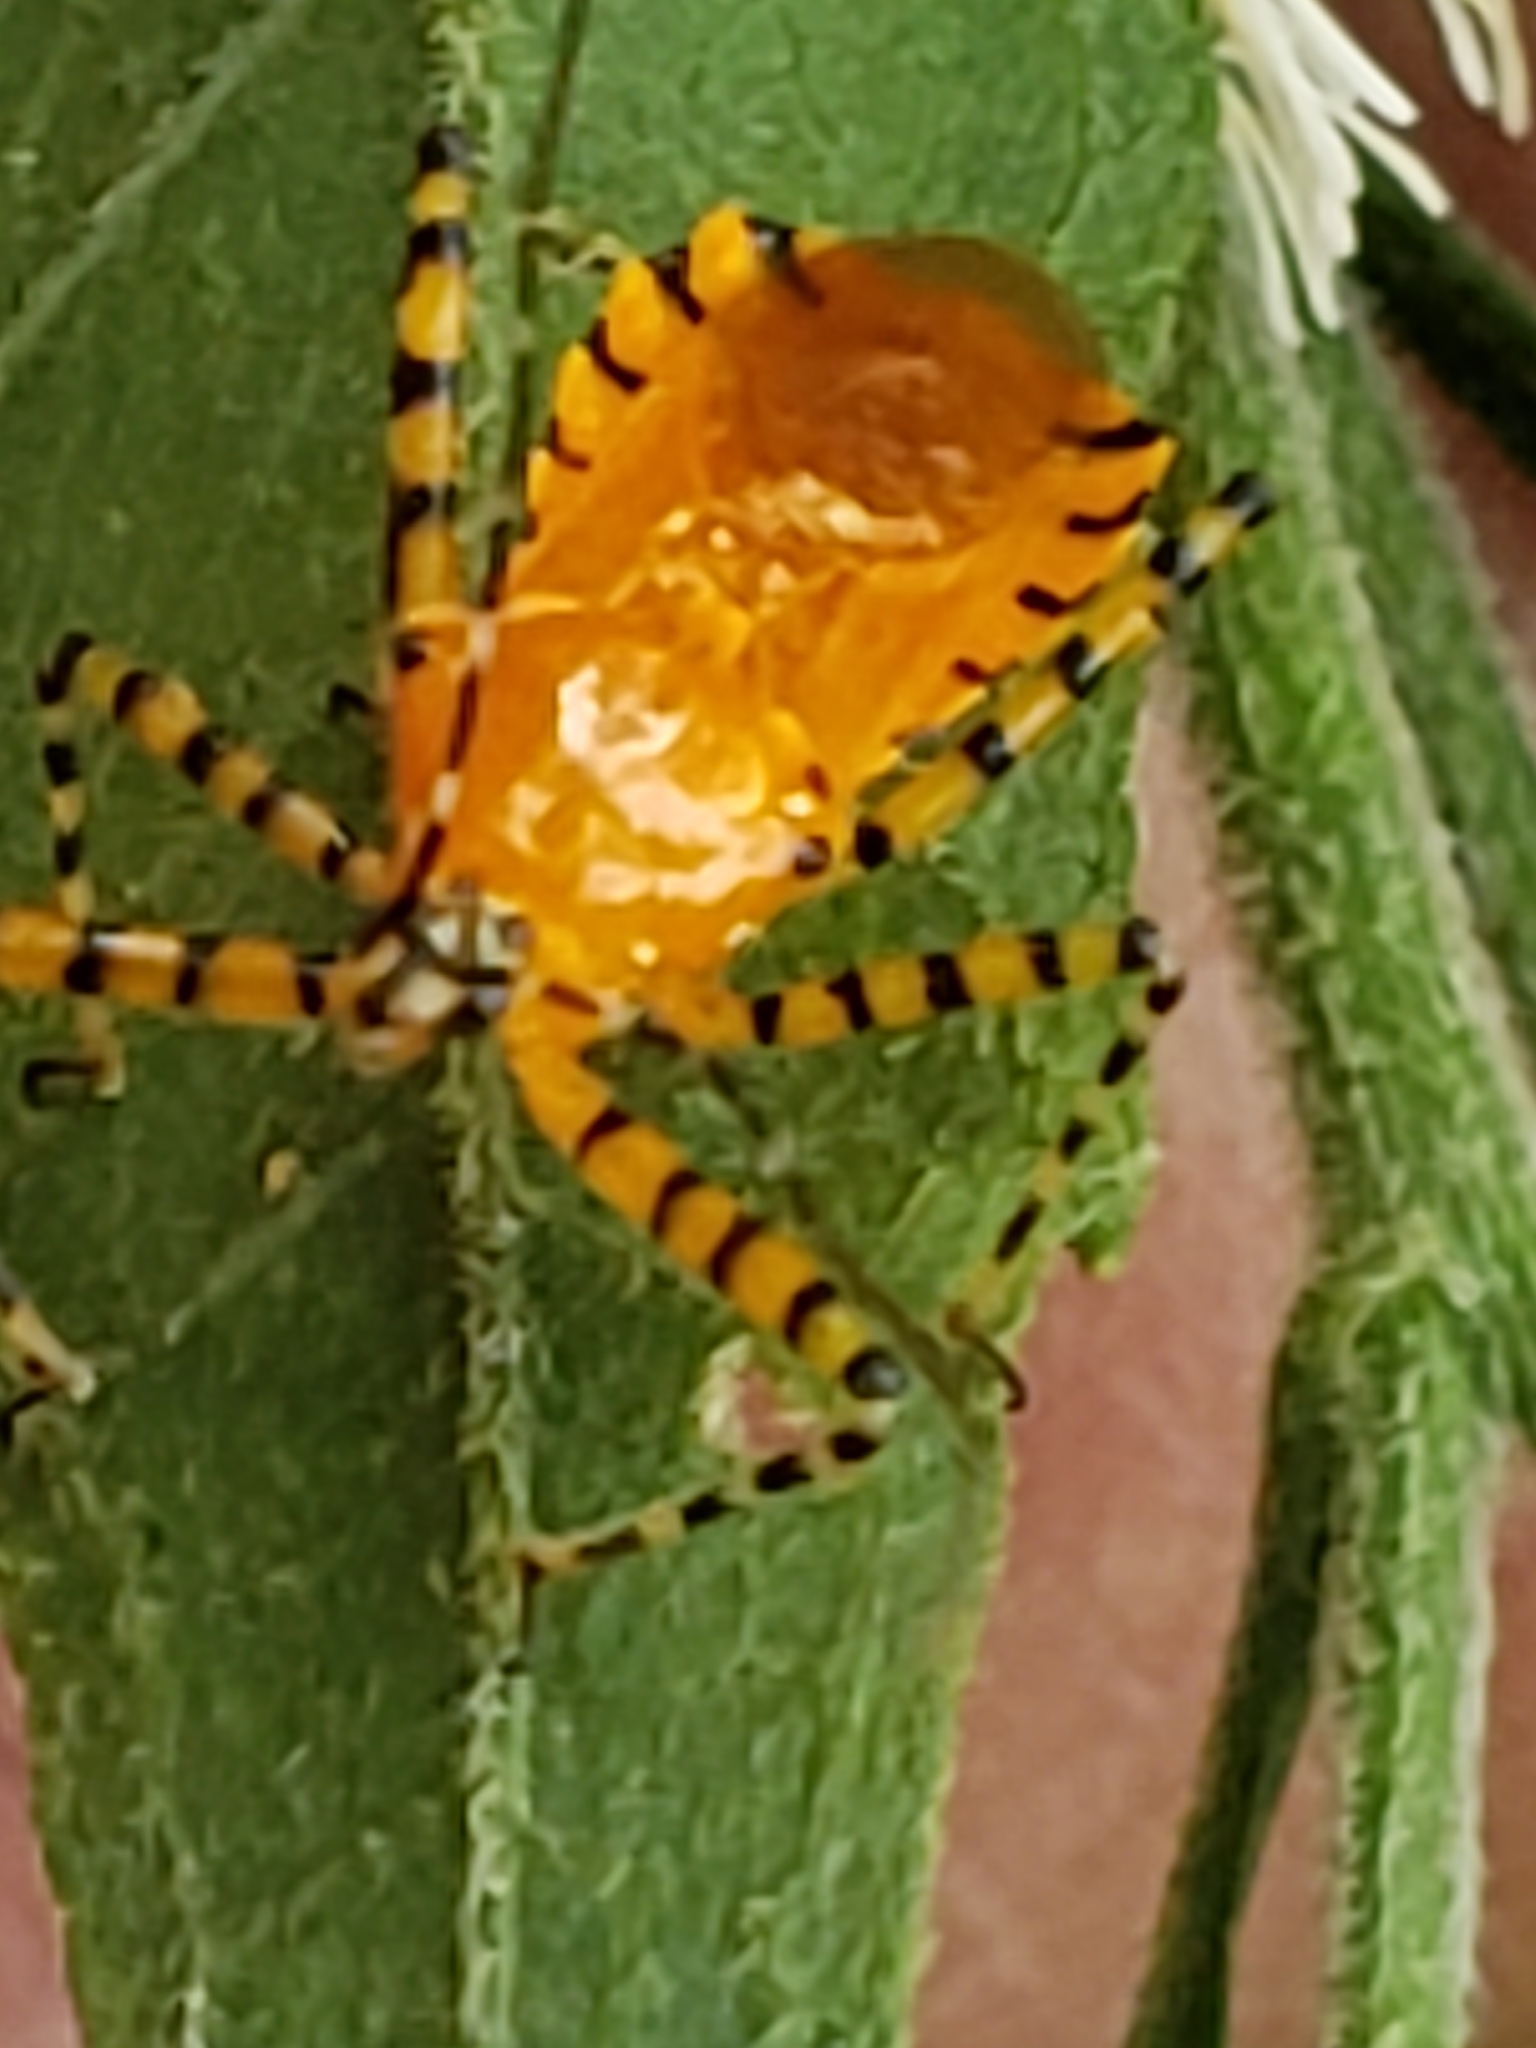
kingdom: Animalia
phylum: Arthropoda
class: Insecta
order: Hemiptera
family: Reduviidae
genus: Pselliopus
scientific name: Pselliopus barberi
